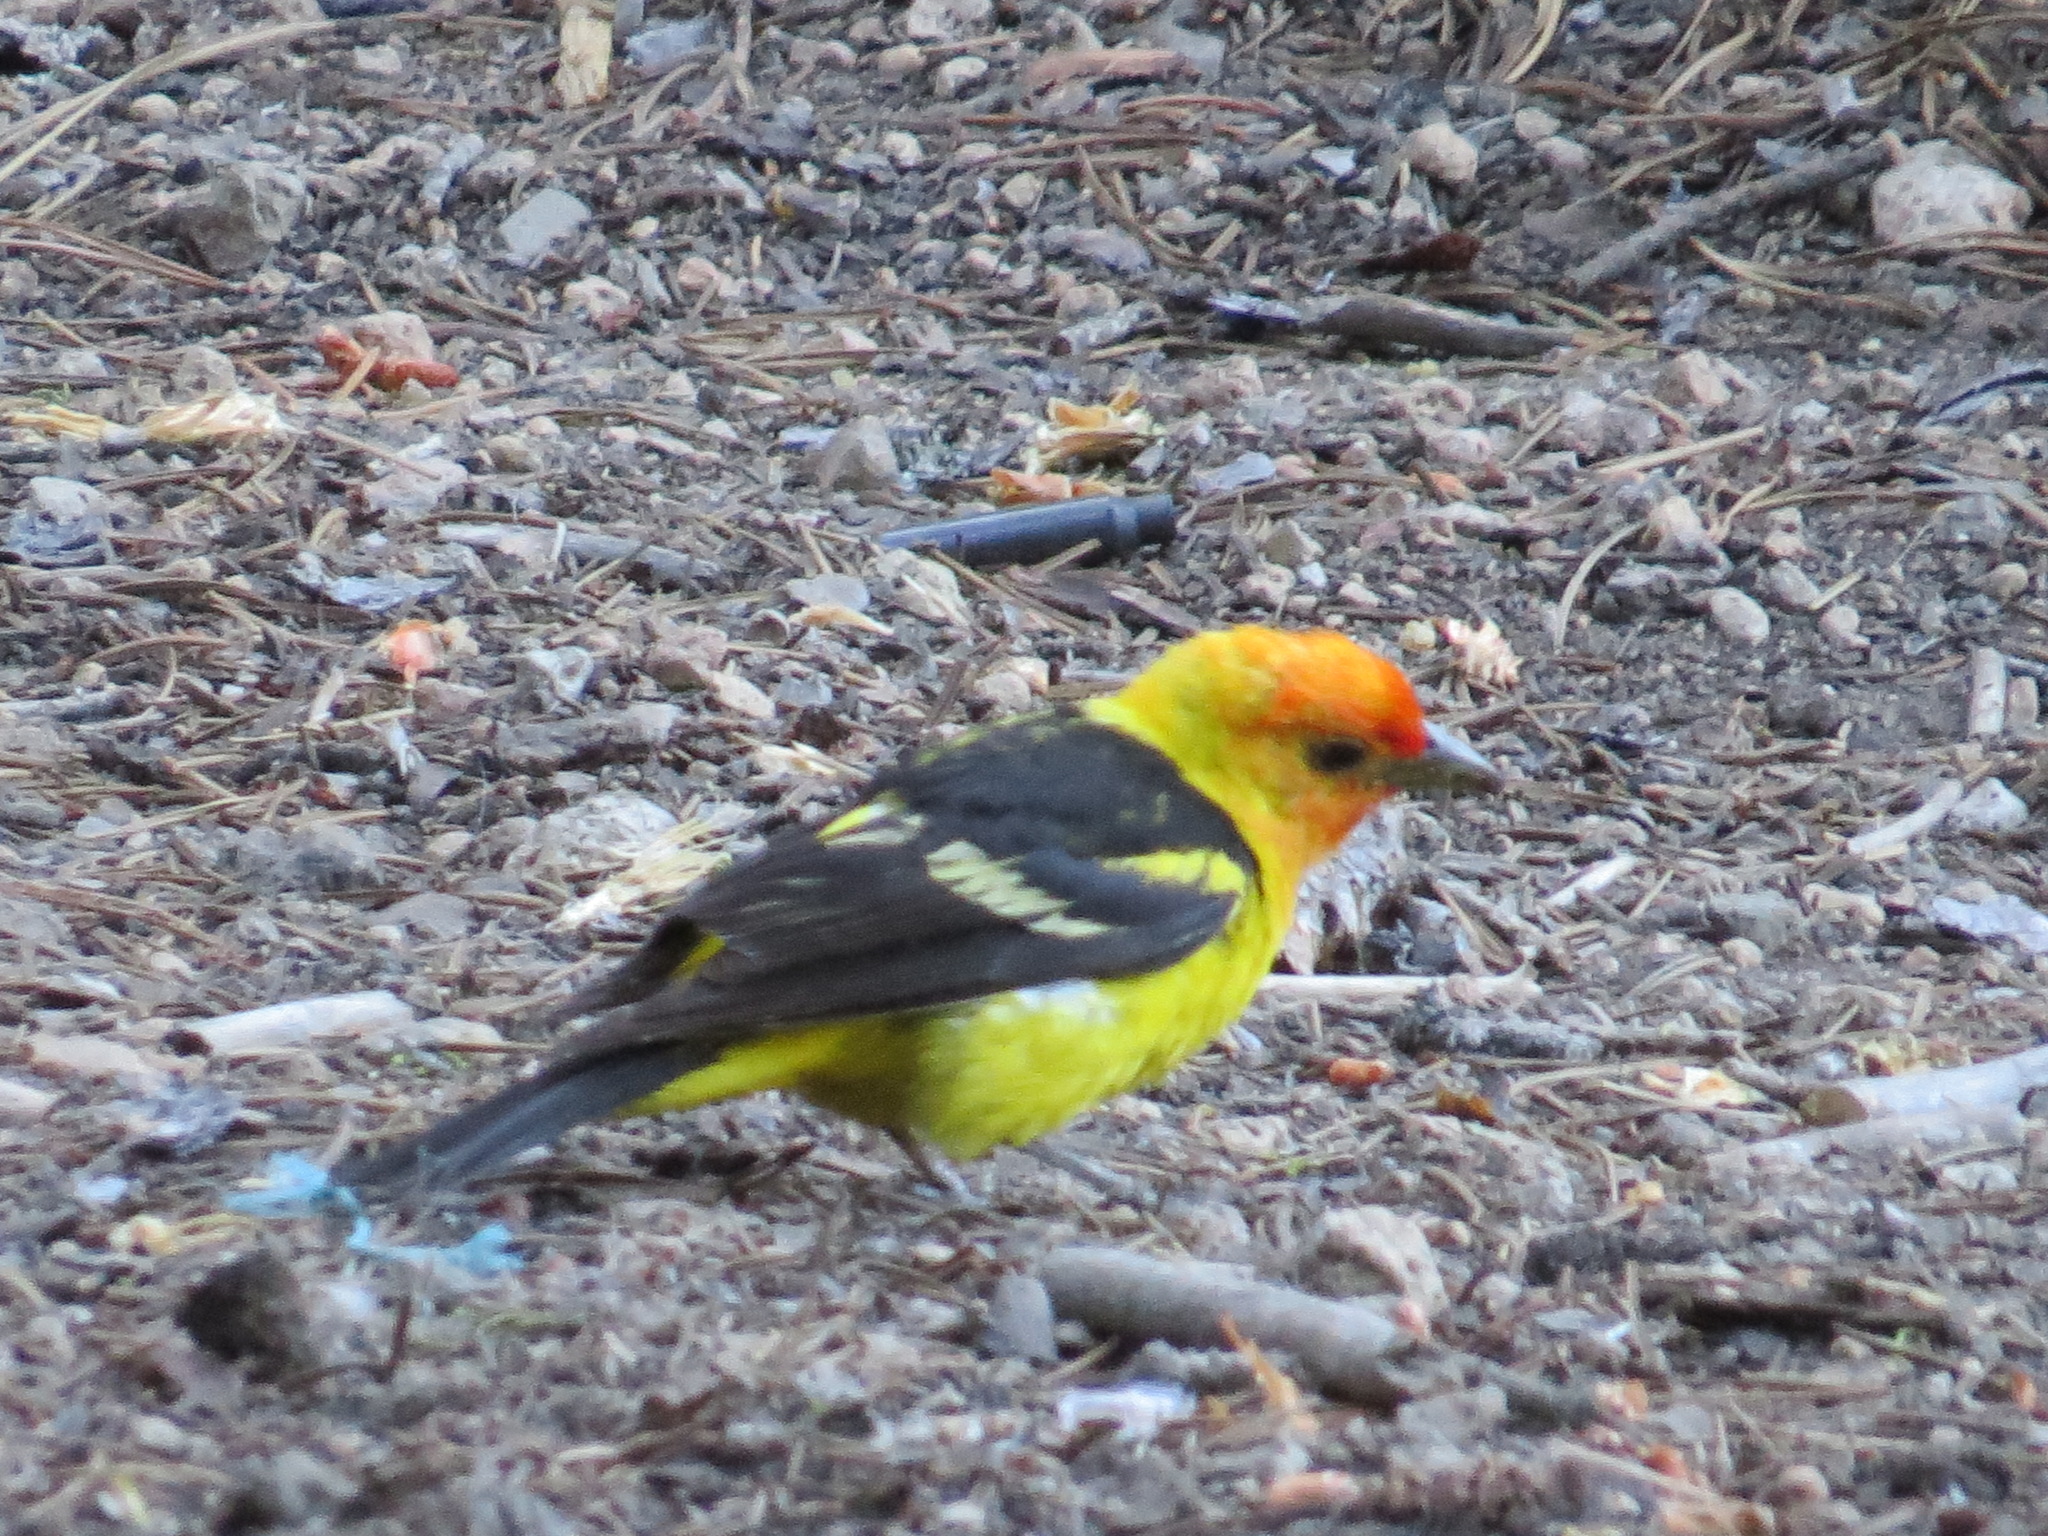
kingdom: Animalia
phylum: Chordata
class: Aves
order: Passeriformes
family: Cardinalidae
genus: Piranga
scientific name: Piranga ludoviciana
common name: Western tanager
